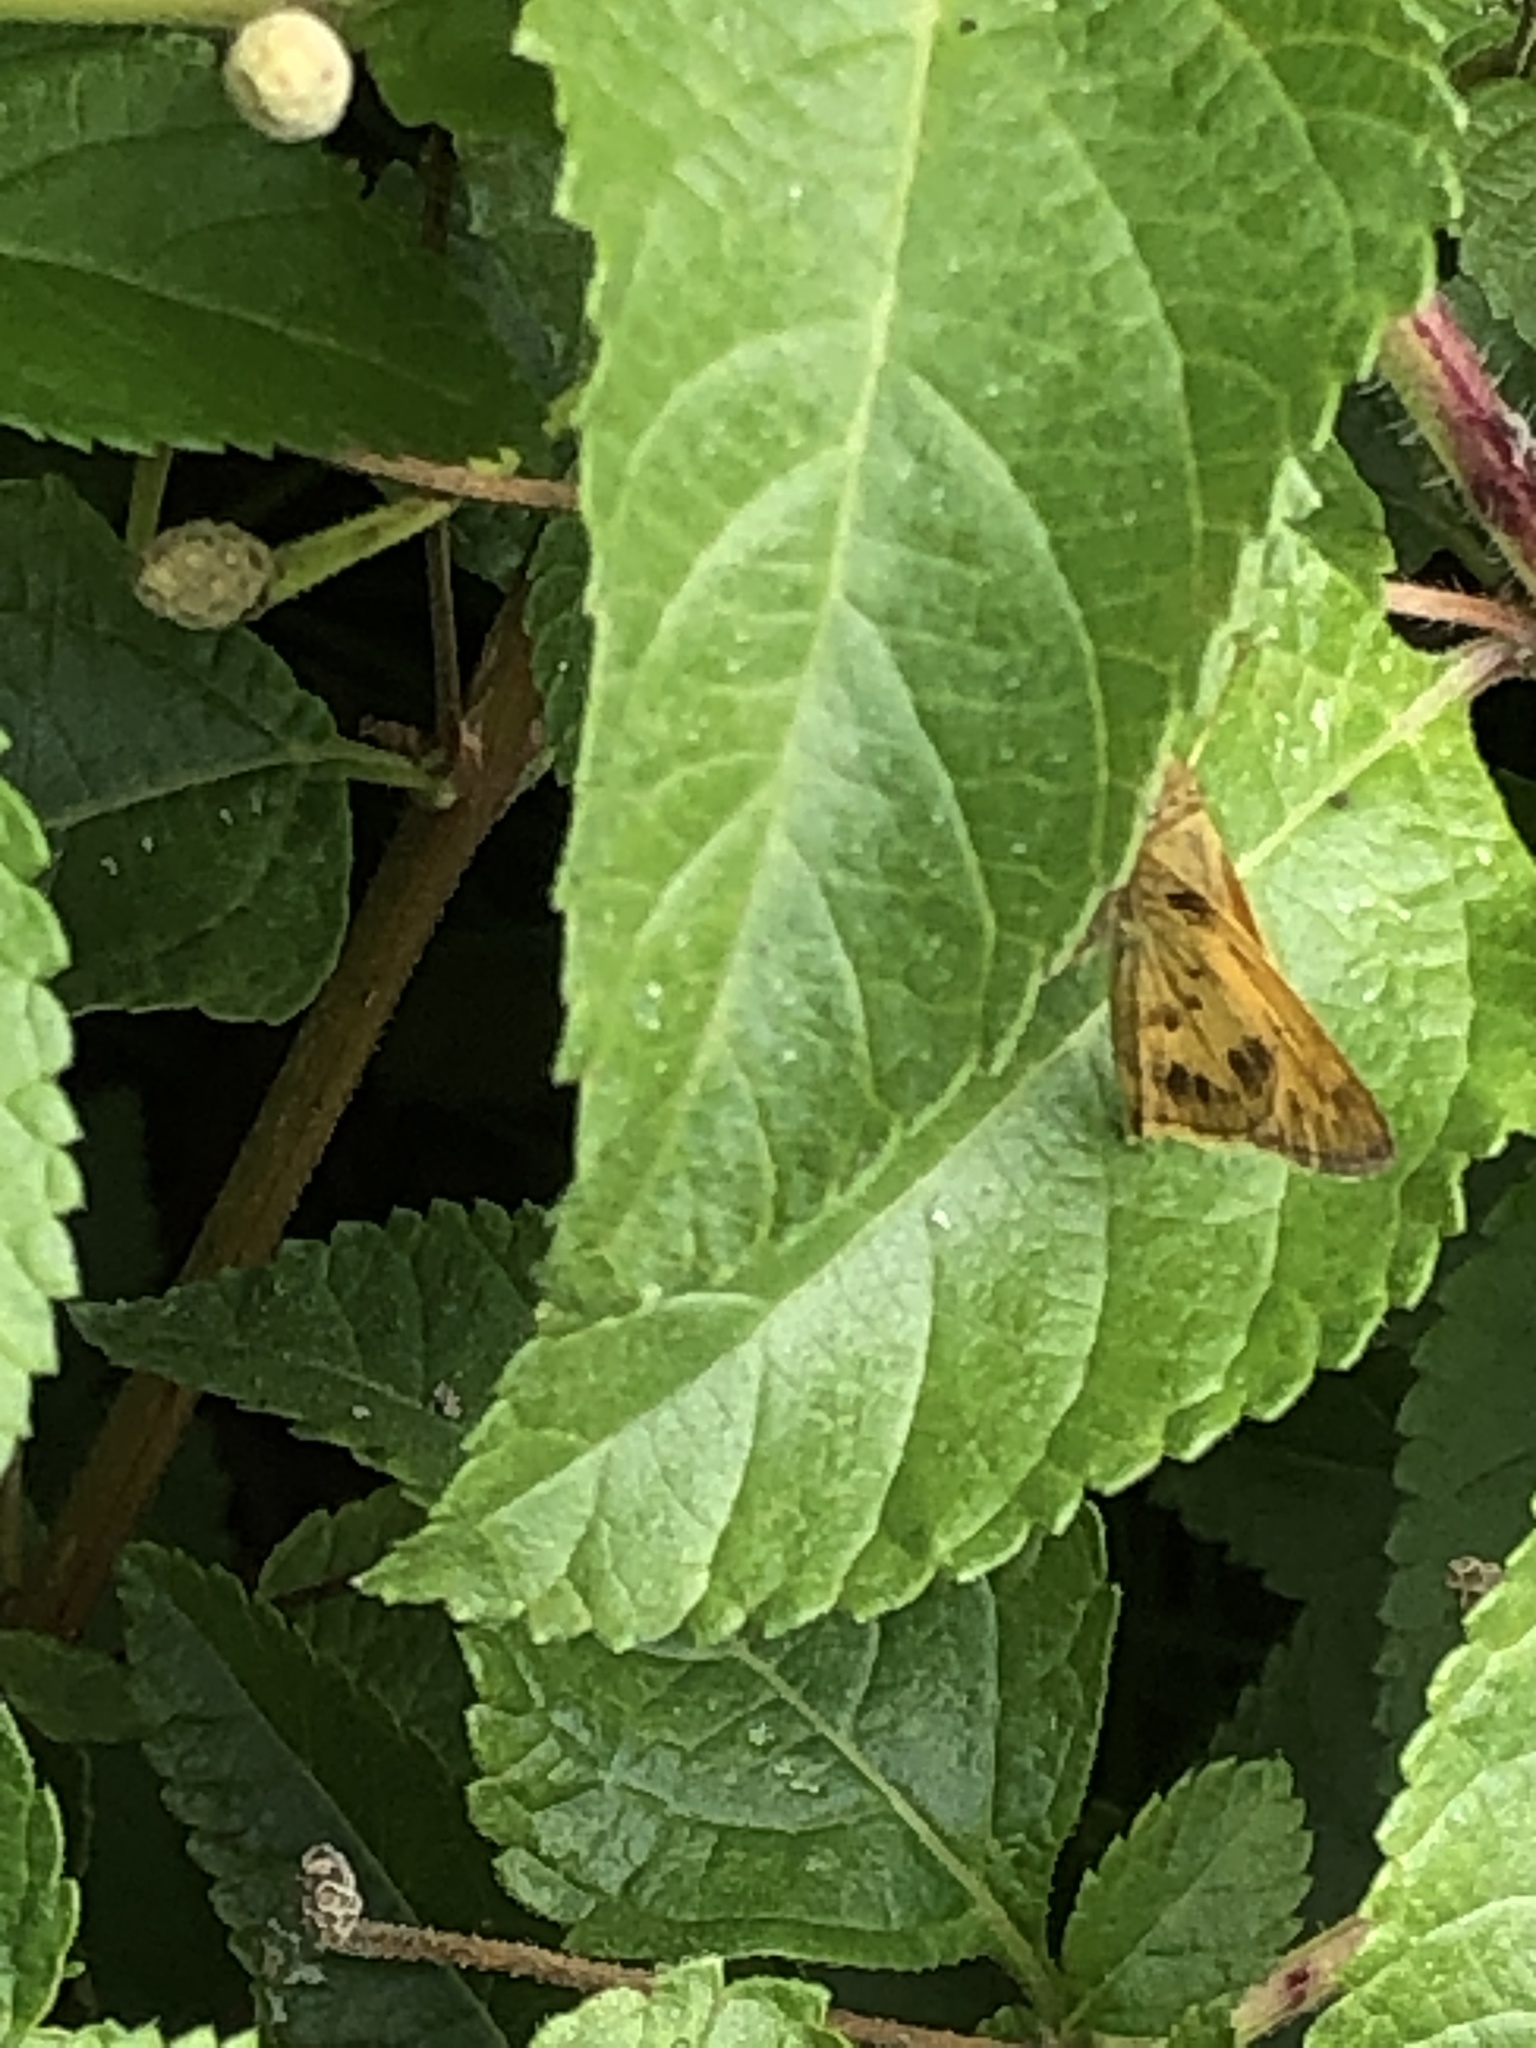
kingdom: Animalia
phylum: Arthropoda
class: Insecta
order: Lepidoptera
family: Hesperiidae
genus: Polites
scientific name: Polites vibex
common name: Whirlabout
